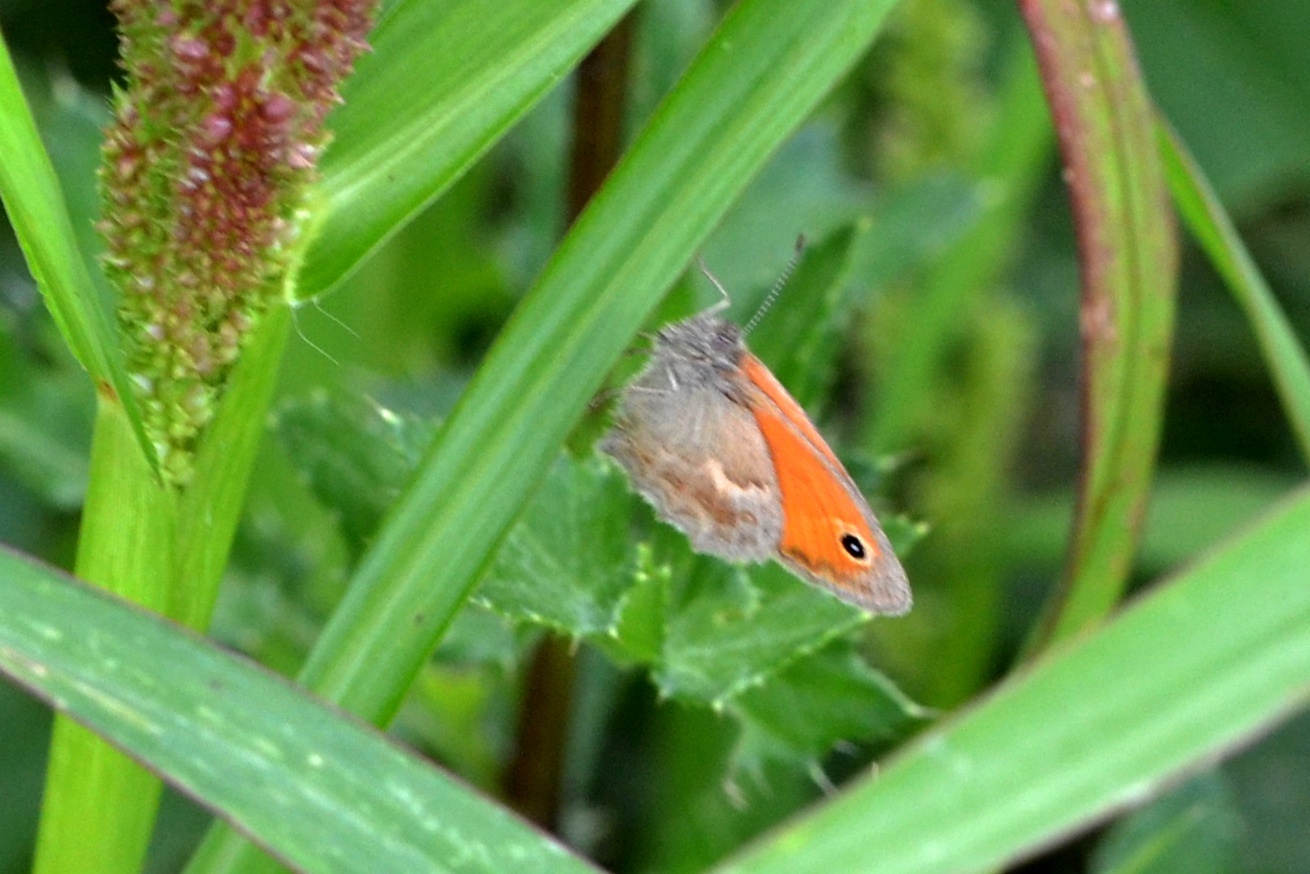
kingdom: Animalia
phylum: Arthropoda
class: Insecta
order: Lepidoptera
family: Nymphalidae
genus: Coenonympha
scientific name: Coenonympha pamphilus
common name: Small heath
